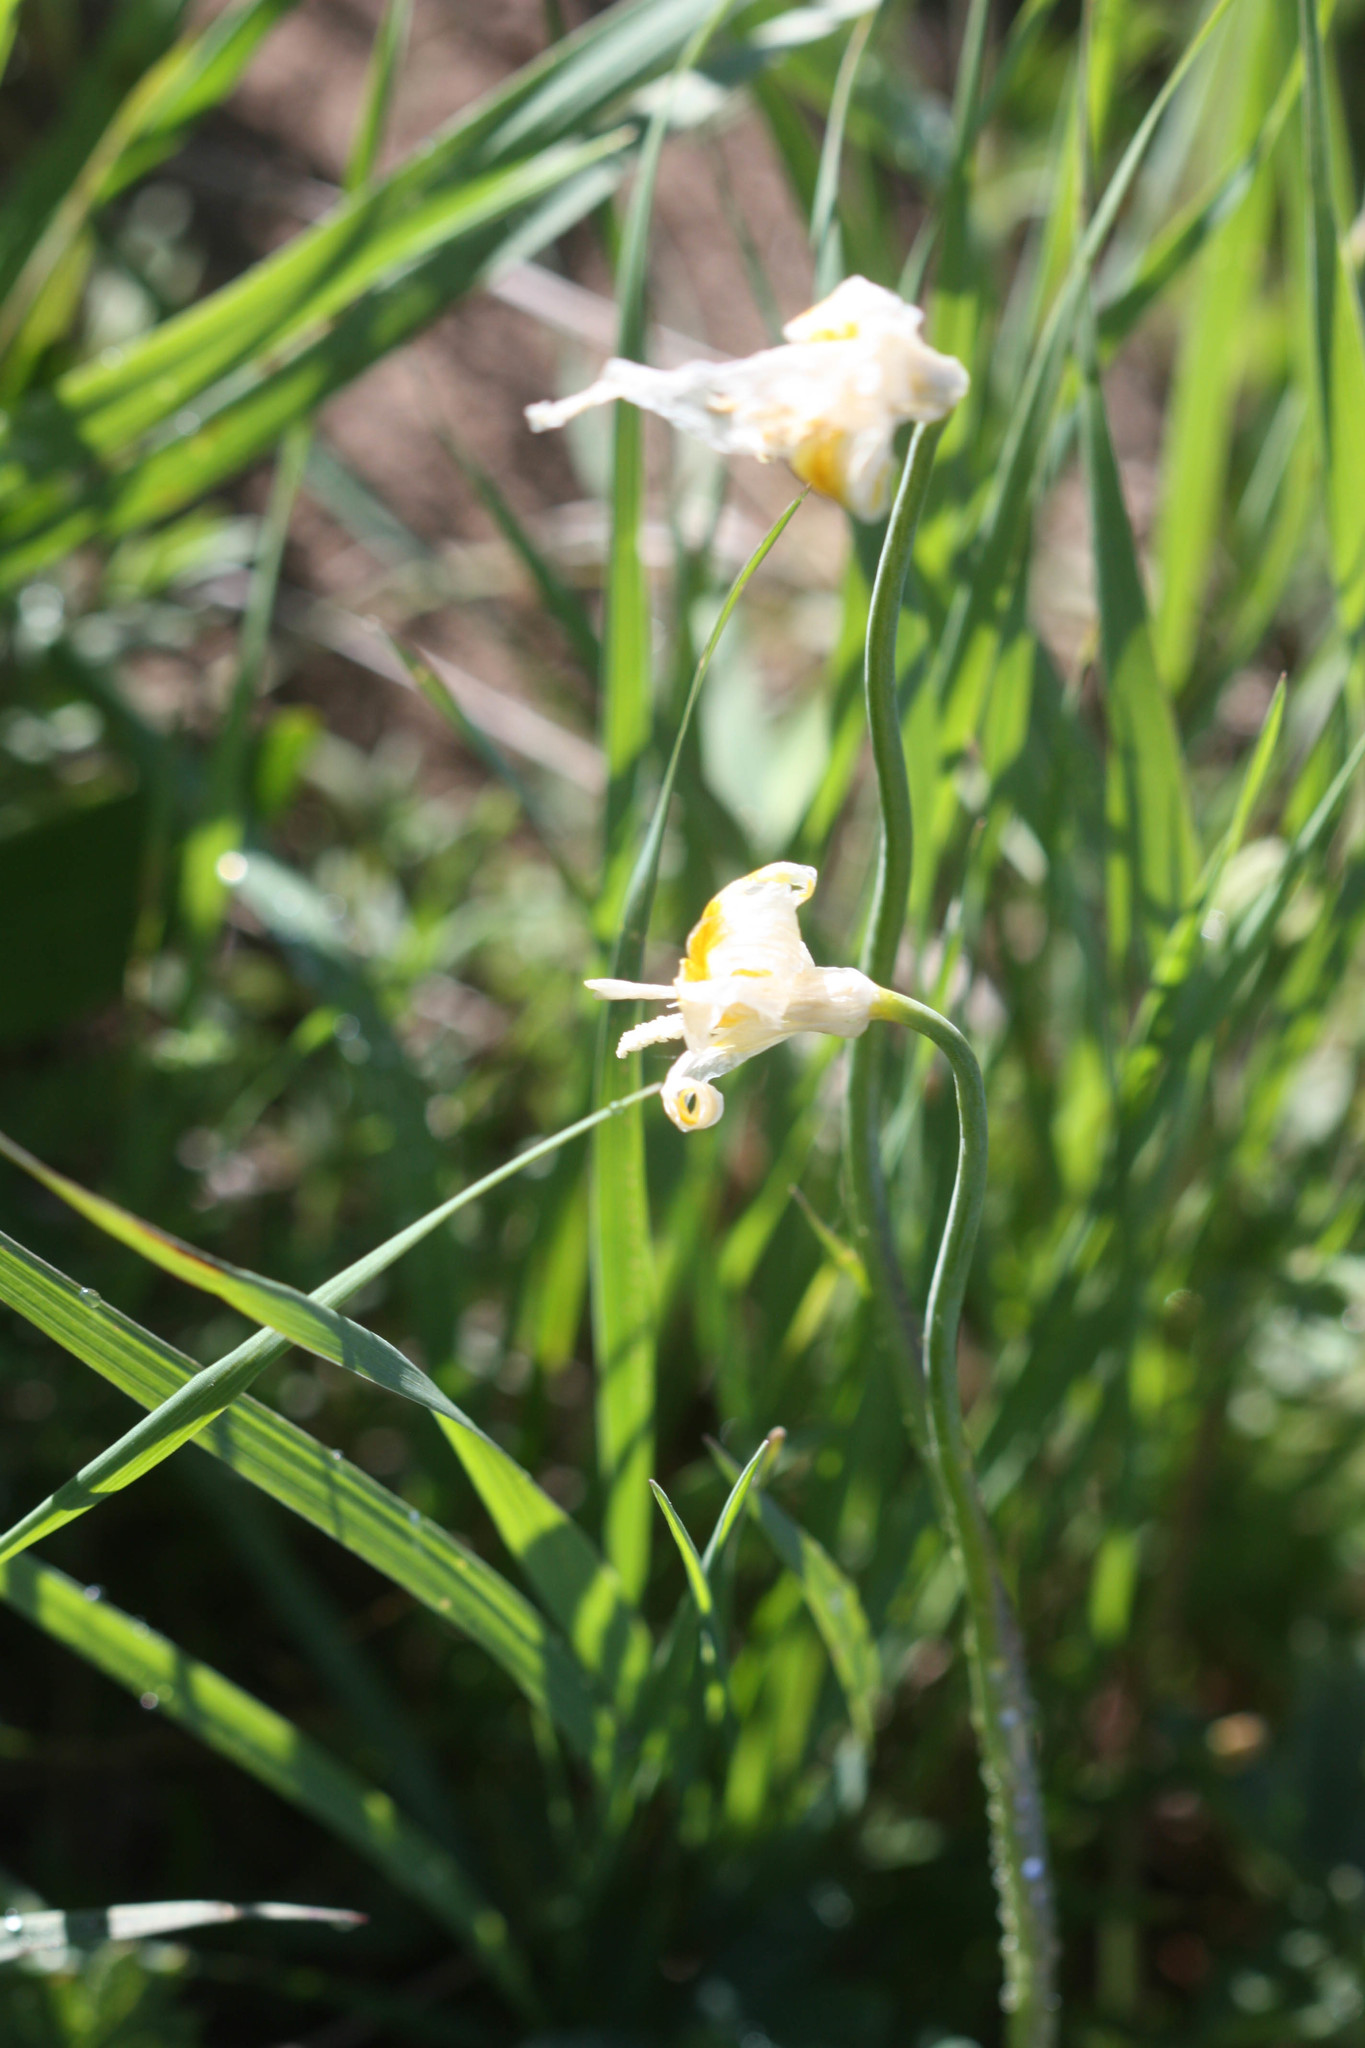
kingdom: Plantae
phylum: Tracheophyta
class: Liliopsida
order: Liliales
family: Liliaceae
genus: Erythronium
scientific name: Erythronium grandiflorum
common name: Avalanche-lily
